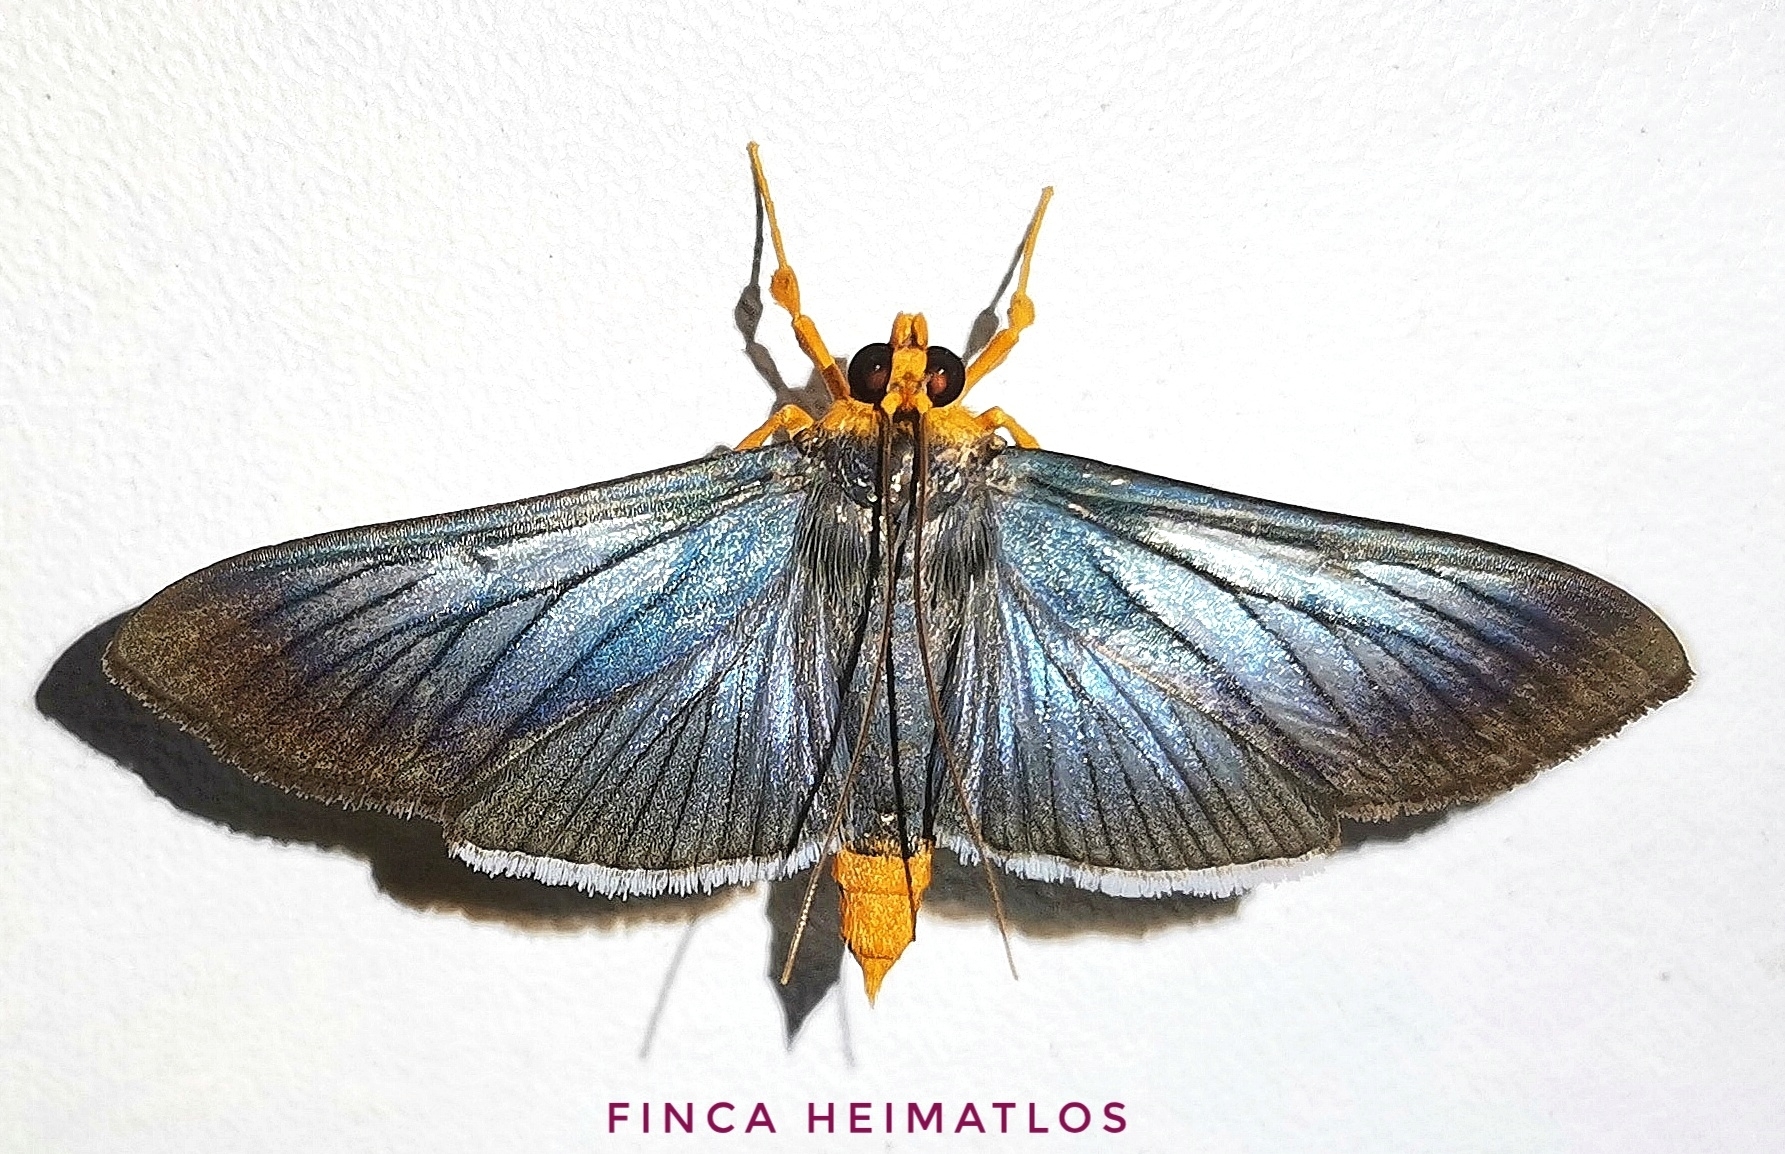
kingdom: Animalia
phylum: Arthropoda
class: Insecta
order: Lepidoptera
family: Crambidae
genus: Omiodes
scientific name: Omiodes fulvicauda
